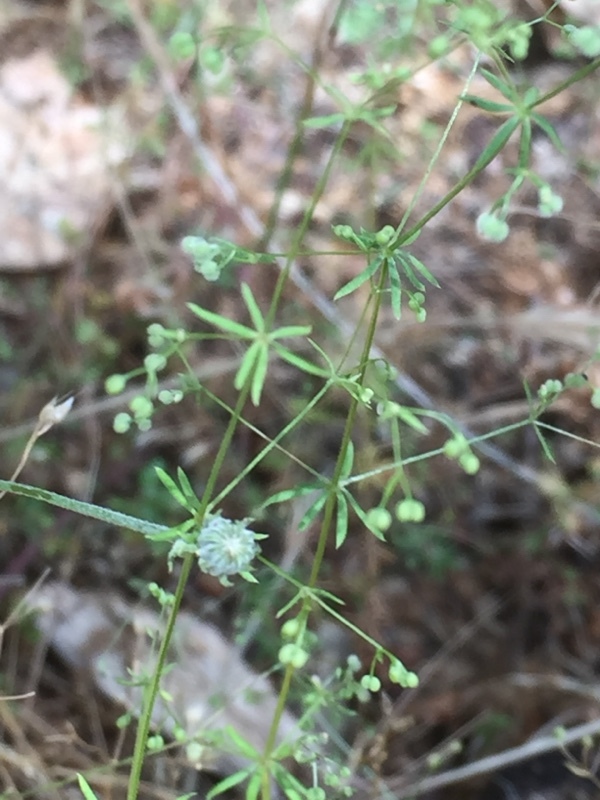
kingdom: Plantae
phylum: Tracheophyta
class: Magnoliopsida
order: Gentianales
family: Rubiaceae
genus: Galium
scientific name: Galium parisiense
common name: Wall bedstraw
